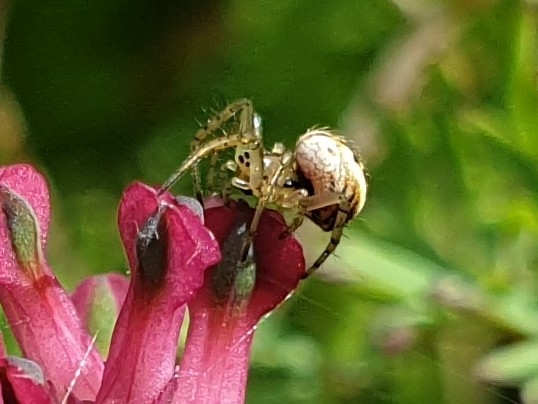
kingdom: Animalia
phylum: Arthropoda
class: Arachnida
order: Araneae
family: Araneidae
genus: Mangora
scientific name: Mangora acalypha
